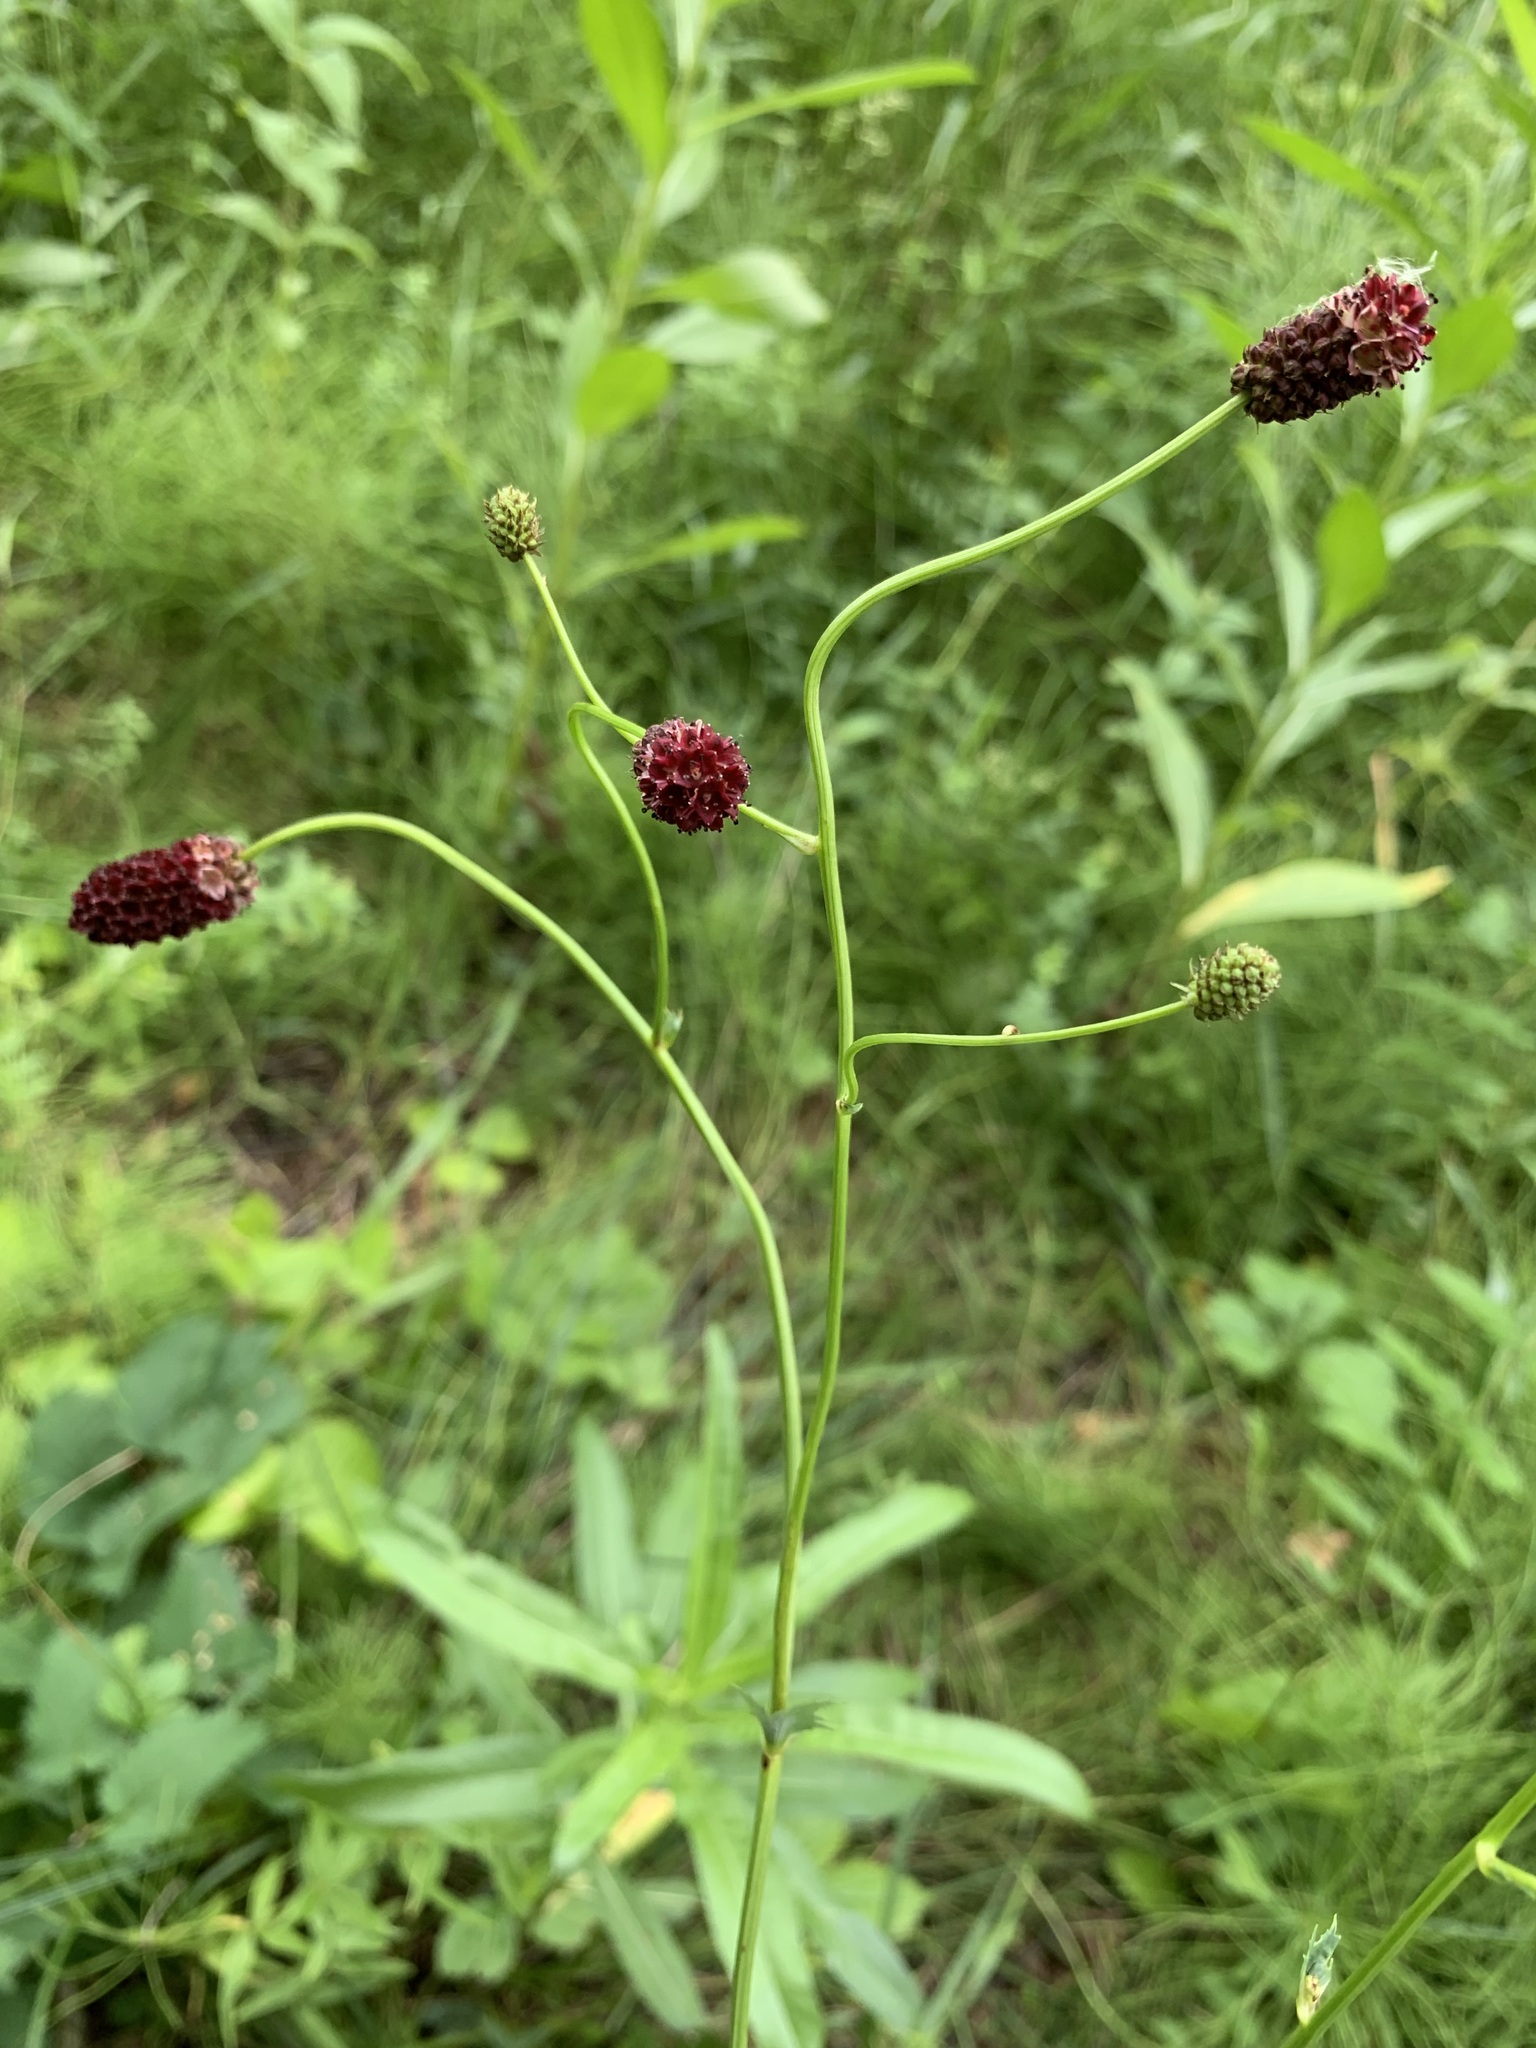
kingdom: Plantae
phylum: Tracheophyta
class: Magnoliopsida
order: Rosales
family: Rosaceae
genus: Sanguisorba
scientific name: Sanguisorba officinalis
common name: Great burnet
